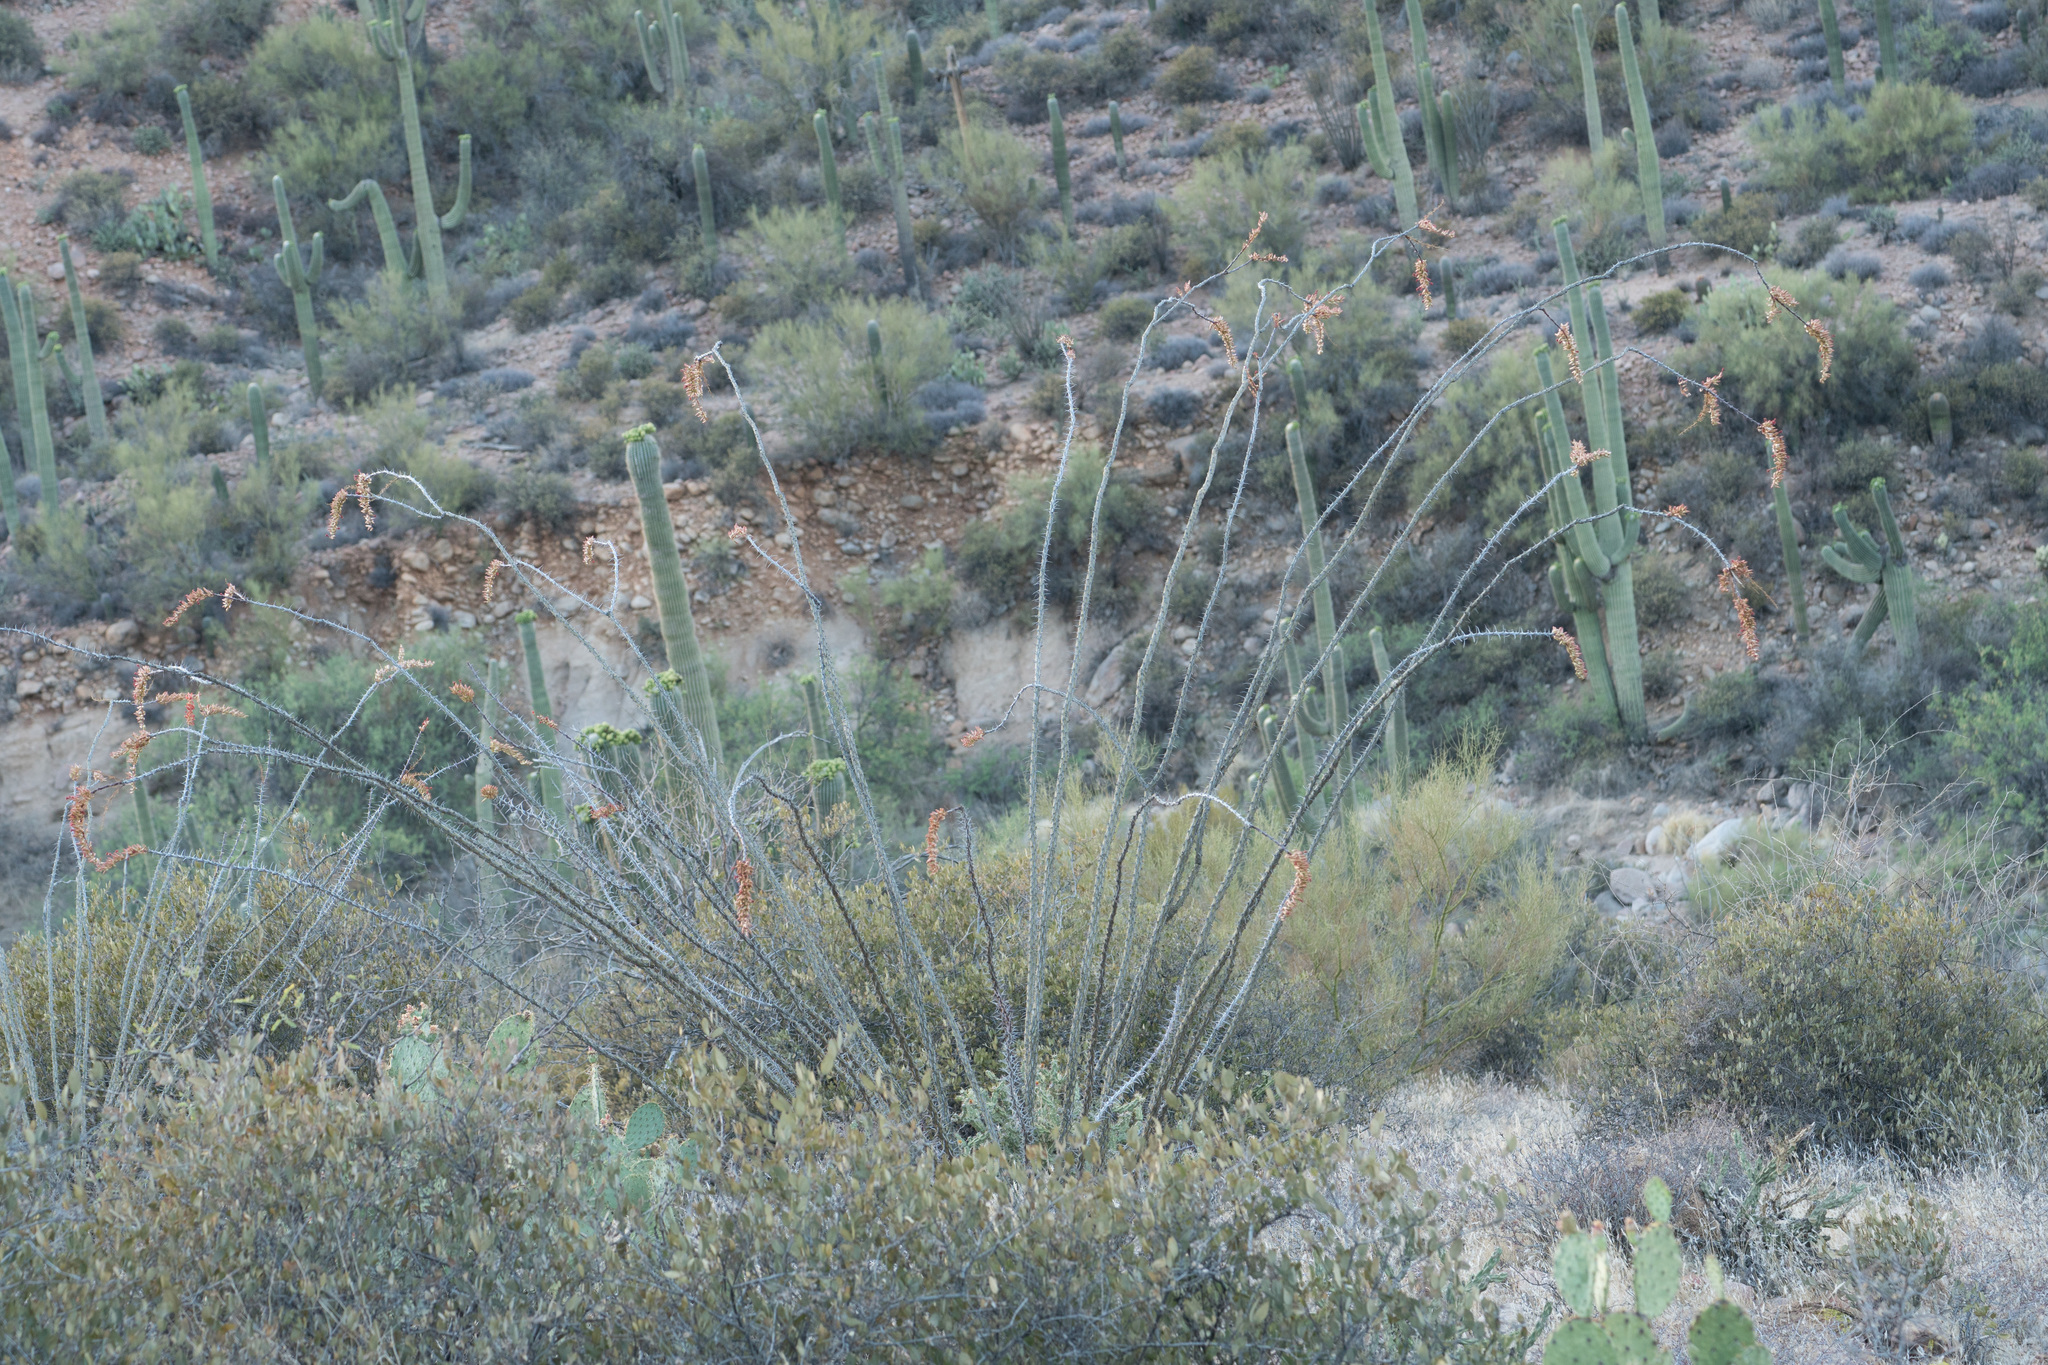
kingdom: Plantae
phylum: Tracheophyta
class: Magnoliopsida
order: Ericales
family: Fouquieriaceae
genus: Fouquieria
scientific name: Fouquieria splendens
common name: Vine-cactus
